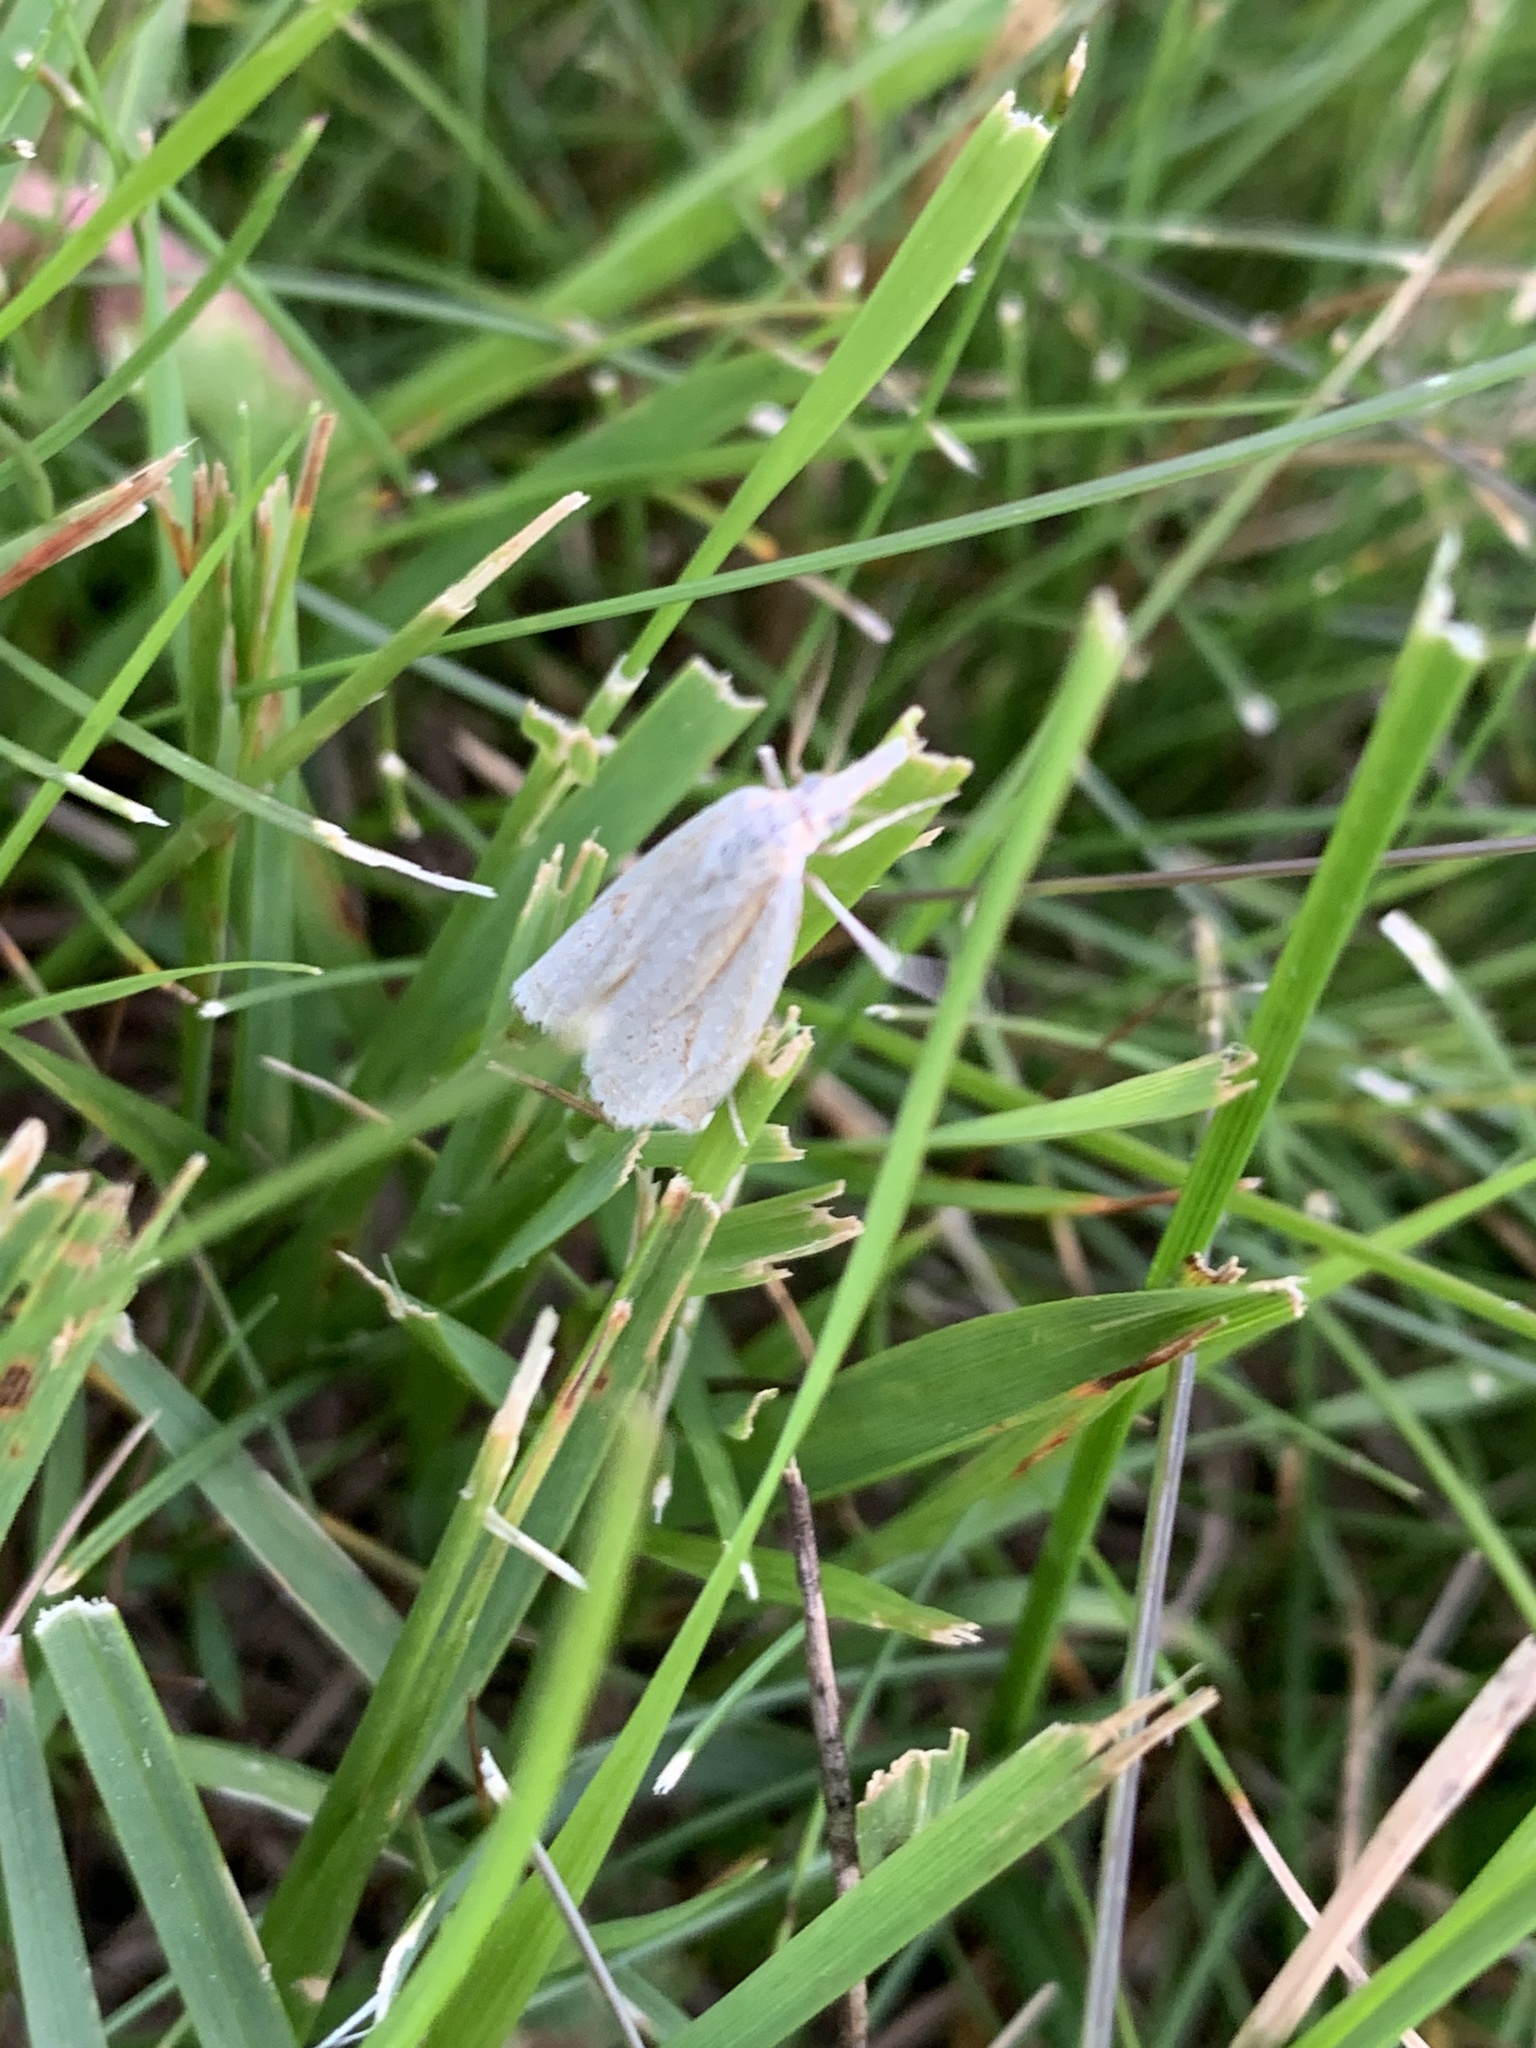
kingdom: Animalia
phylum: Arthropoda
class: Insecta
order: Lepidoptera
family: Crambidae
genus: Crambus
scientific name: Crambus
